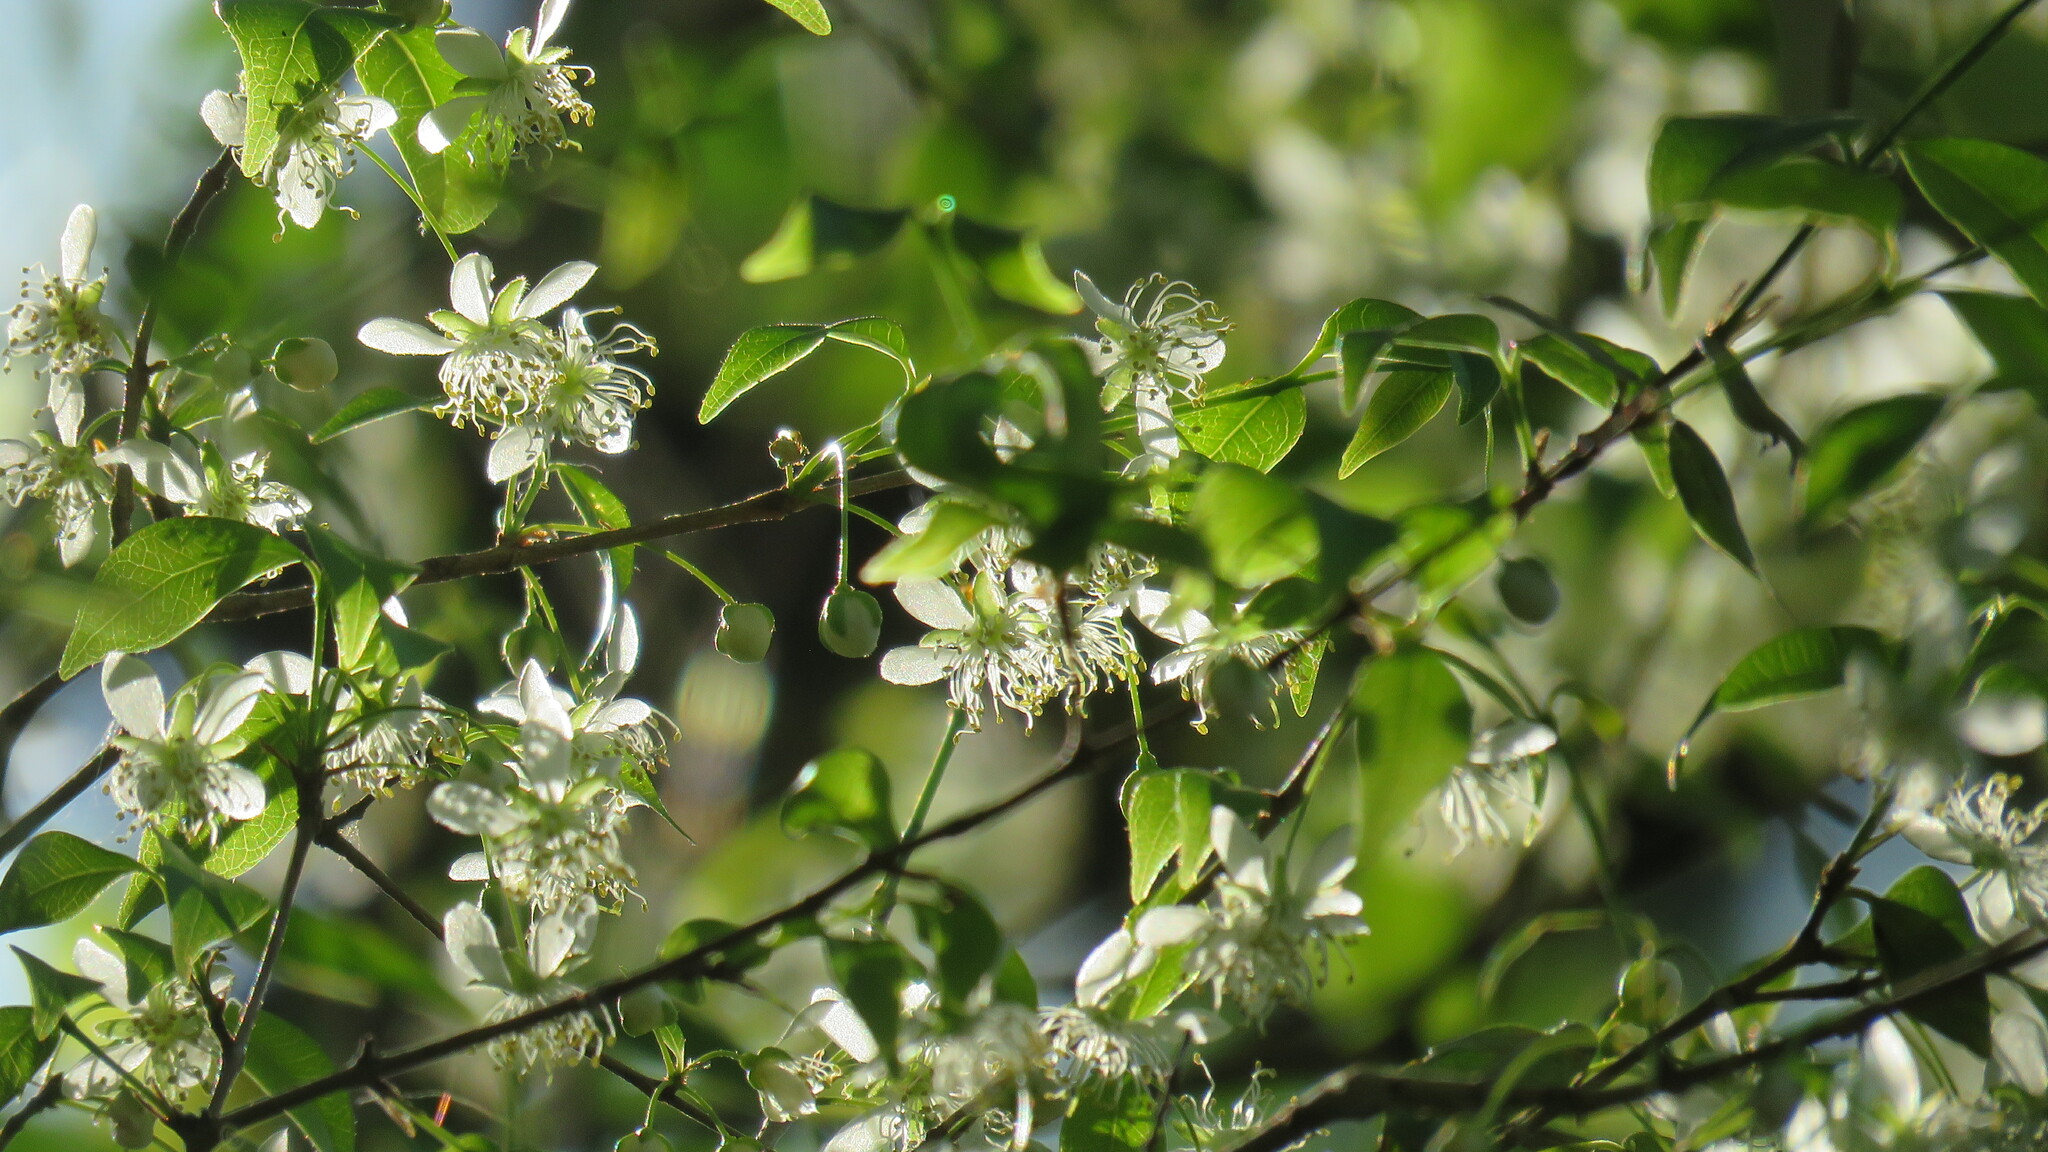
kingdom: Plantae
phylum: Tracheophyta
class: Magnoliopsida
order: Myrtales
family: Myrtaceae
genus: Eugenia
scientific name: Eugenia uniflora
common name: Surinam cherry
